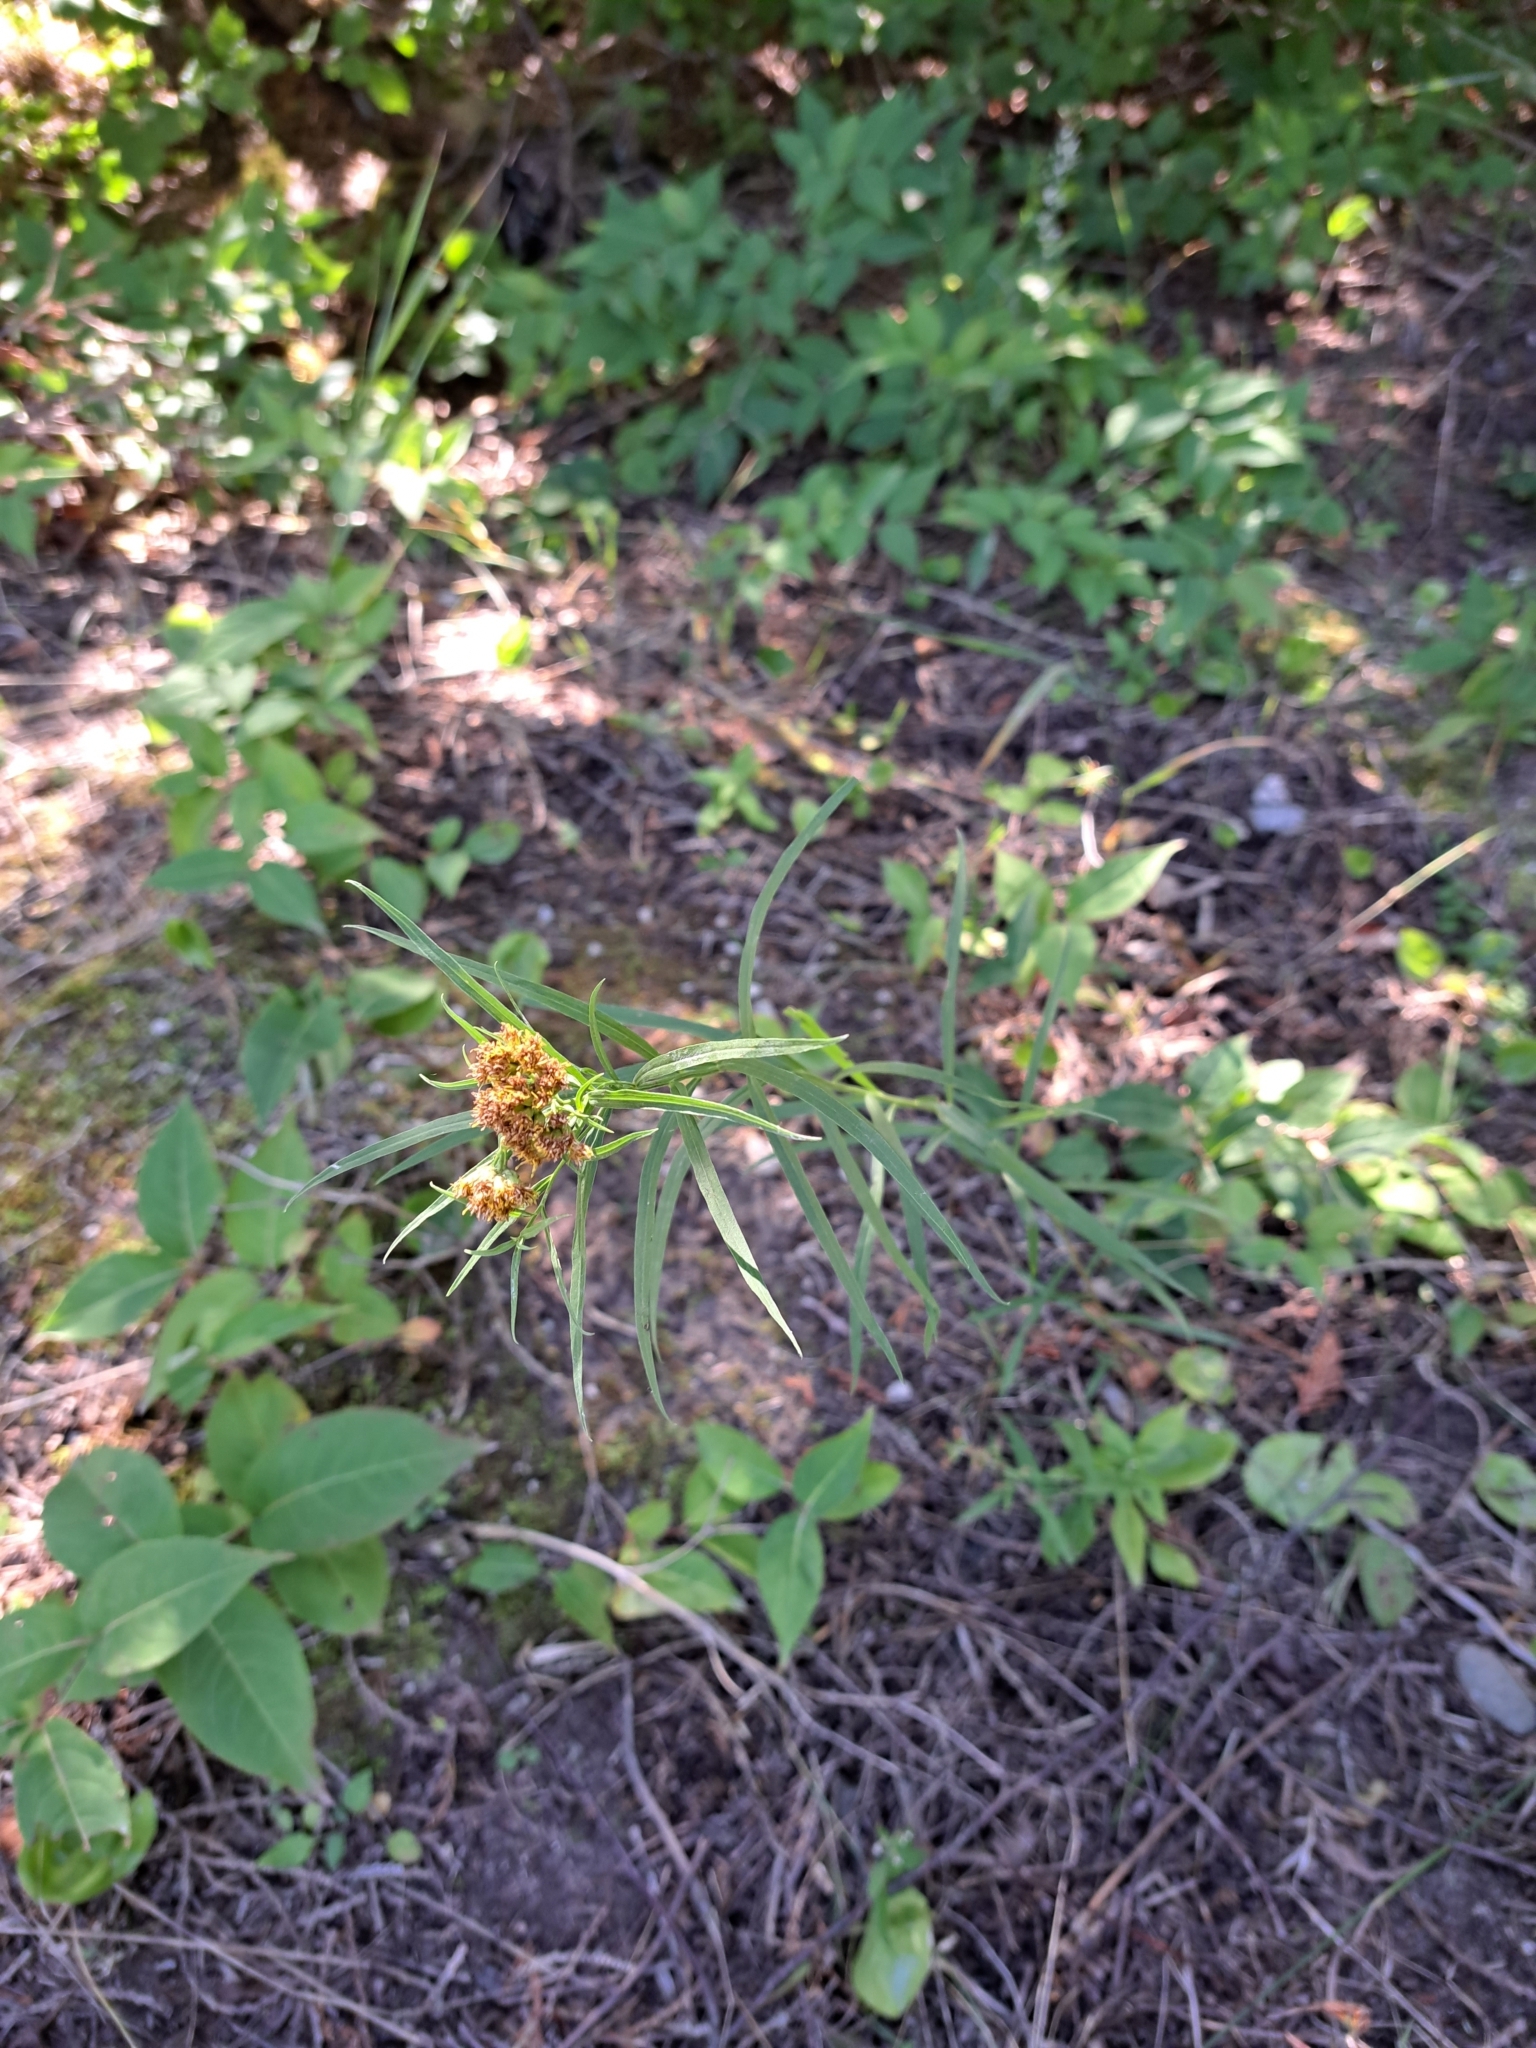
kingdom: Plantae
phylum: Tracheophyta
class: Magnoliopsida
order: Asterales
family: Asteraceae
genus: Euthamia
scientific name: Euthamia graminifolia
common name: Common goldentop
